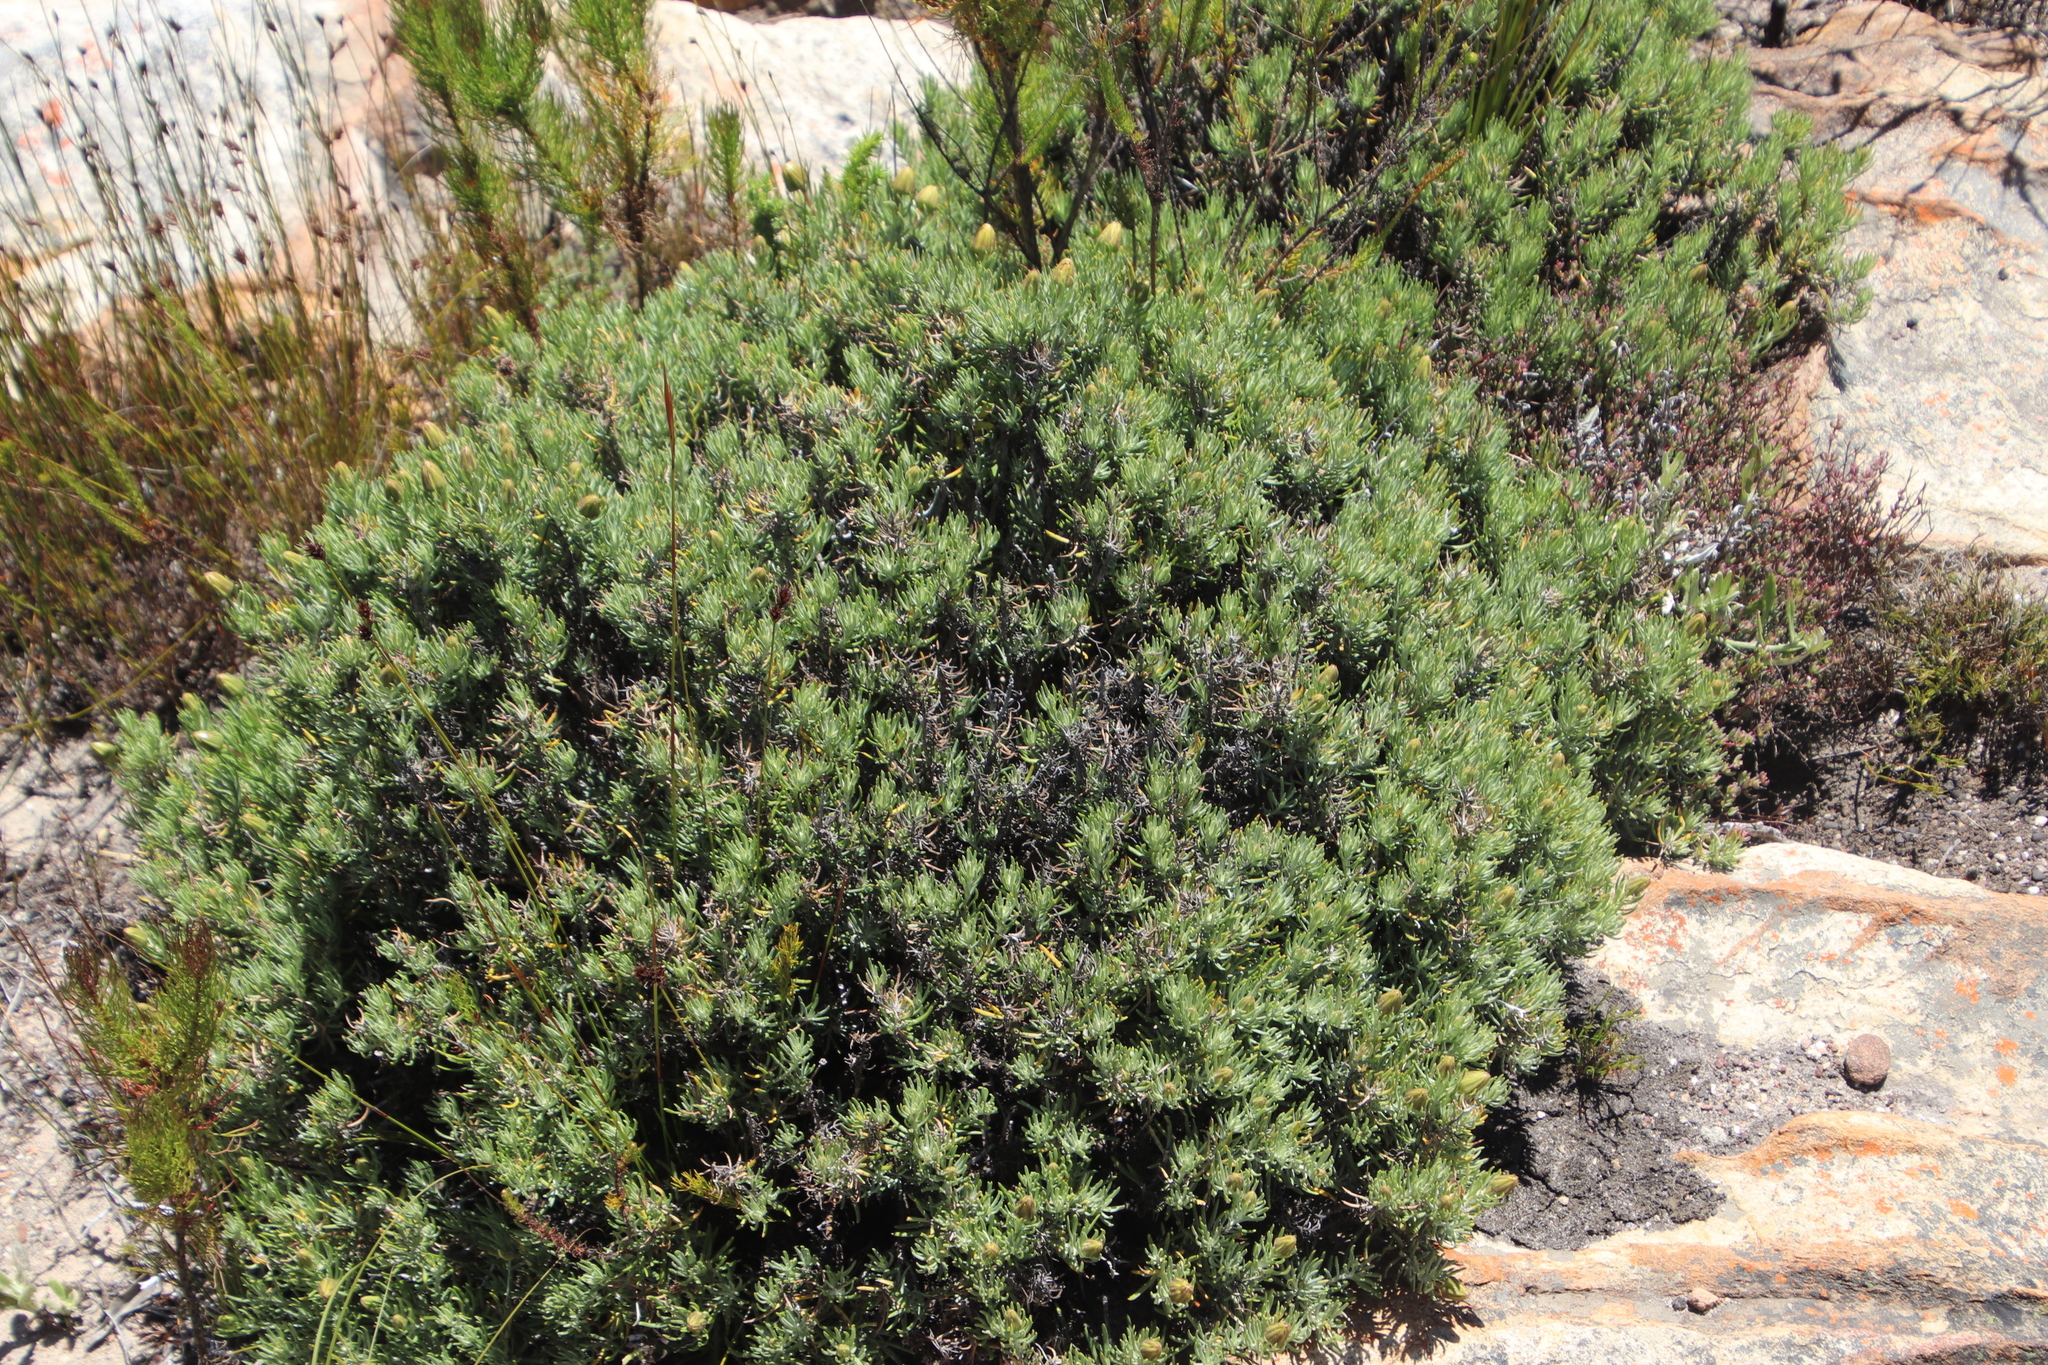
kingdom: Plantae
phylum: Tracheophyta
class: Magnoliopsida
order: Asterales
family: Asteraceae
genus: Heterolepis
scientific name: Heterolepis aliena
